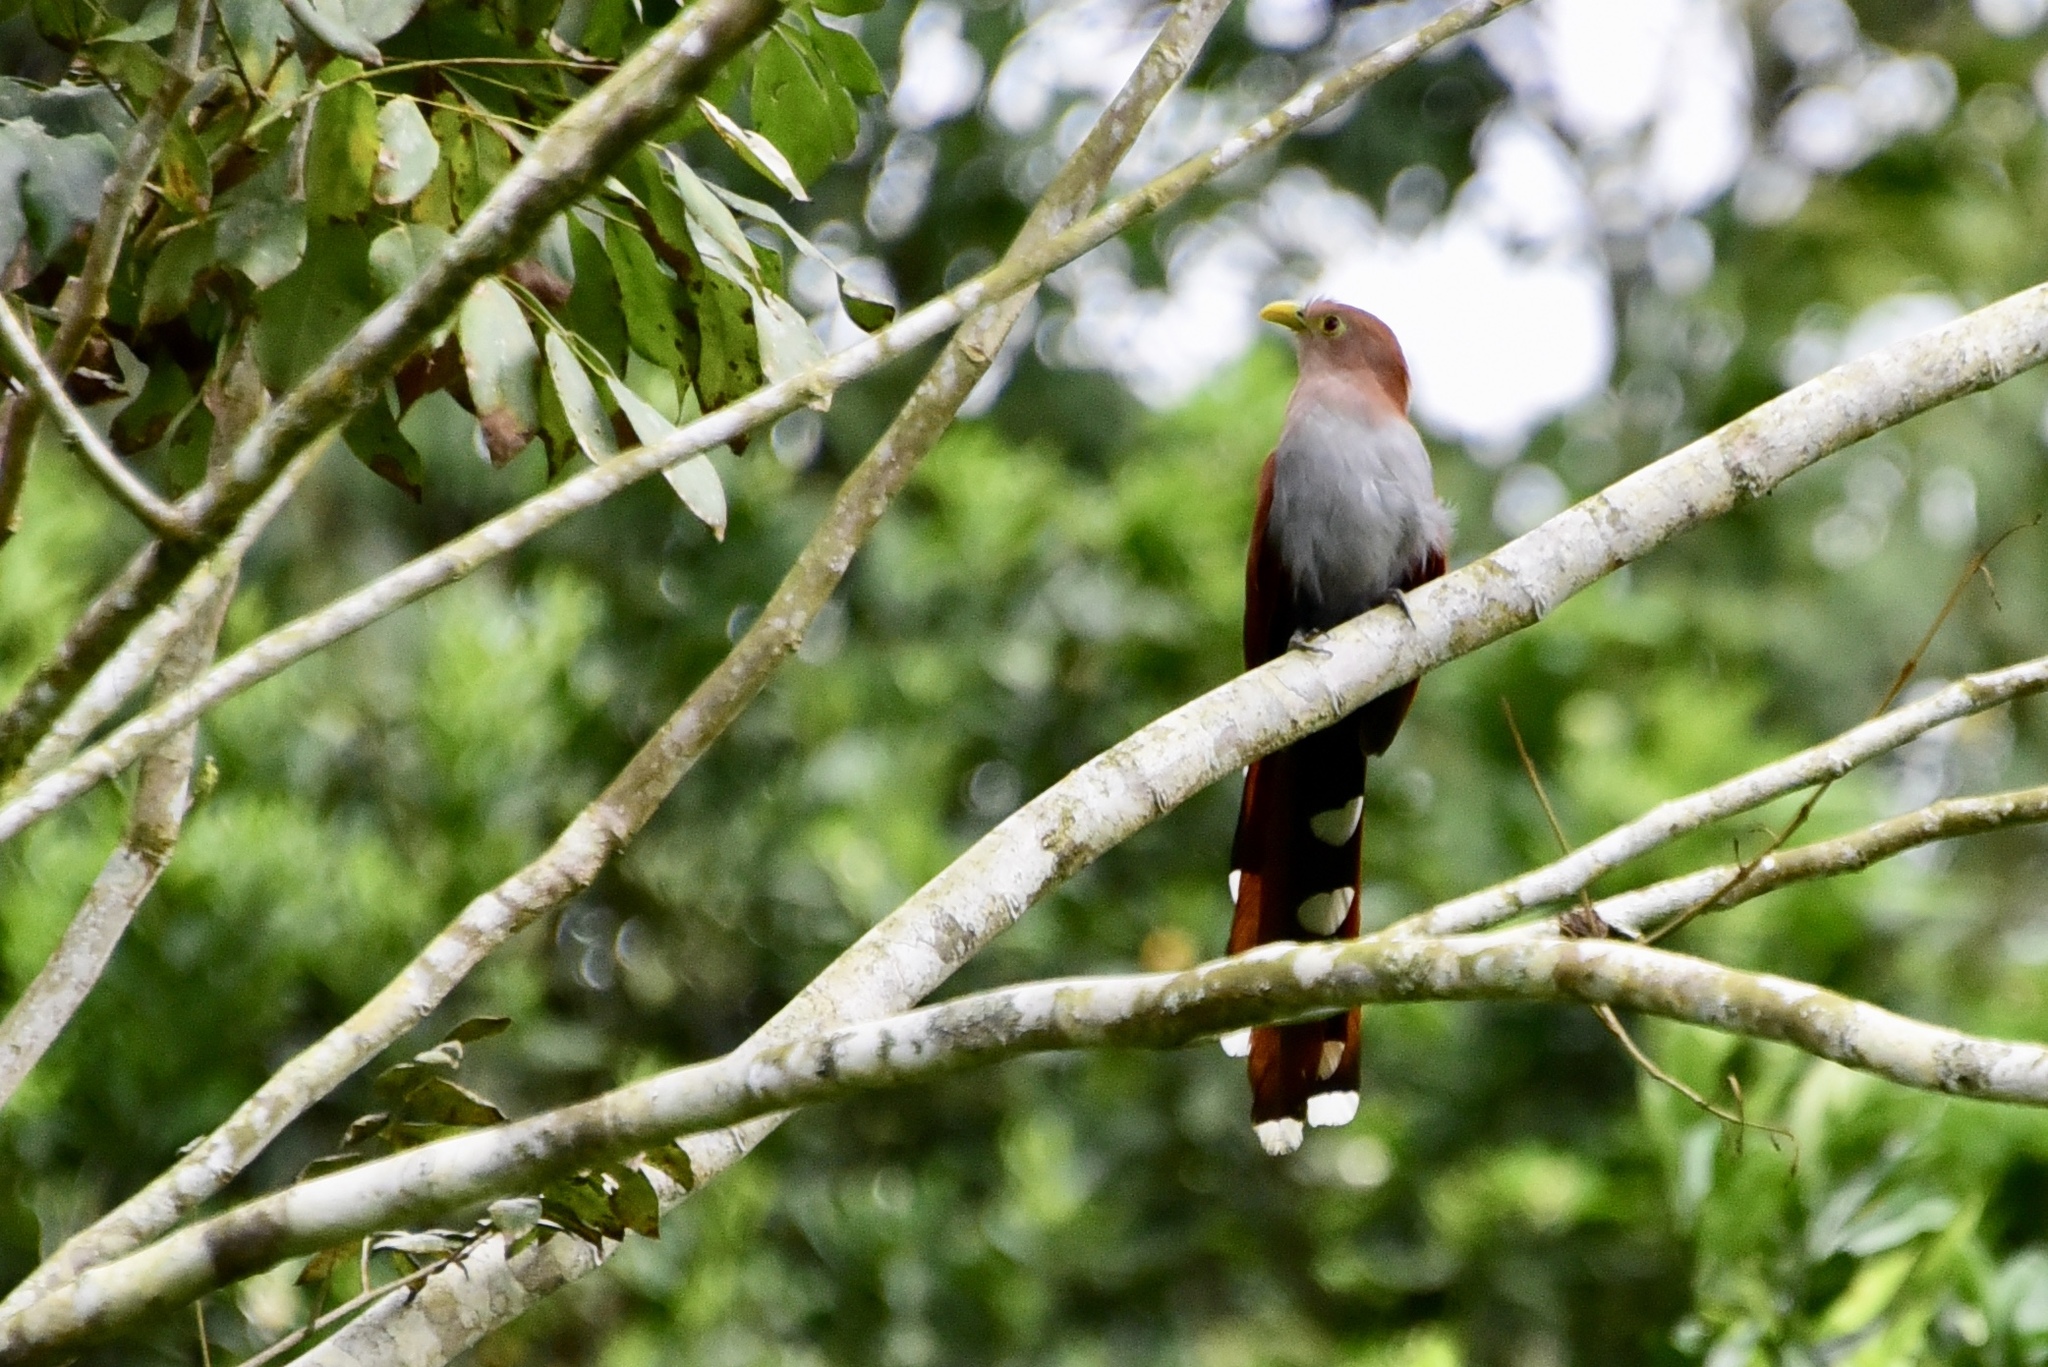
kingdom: Animalia
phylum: Chordata
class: Aves
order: Cuculiformes
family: Cuculidae
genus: Piaya
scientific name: Piaya cayana
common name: Squirrel cuckoo
